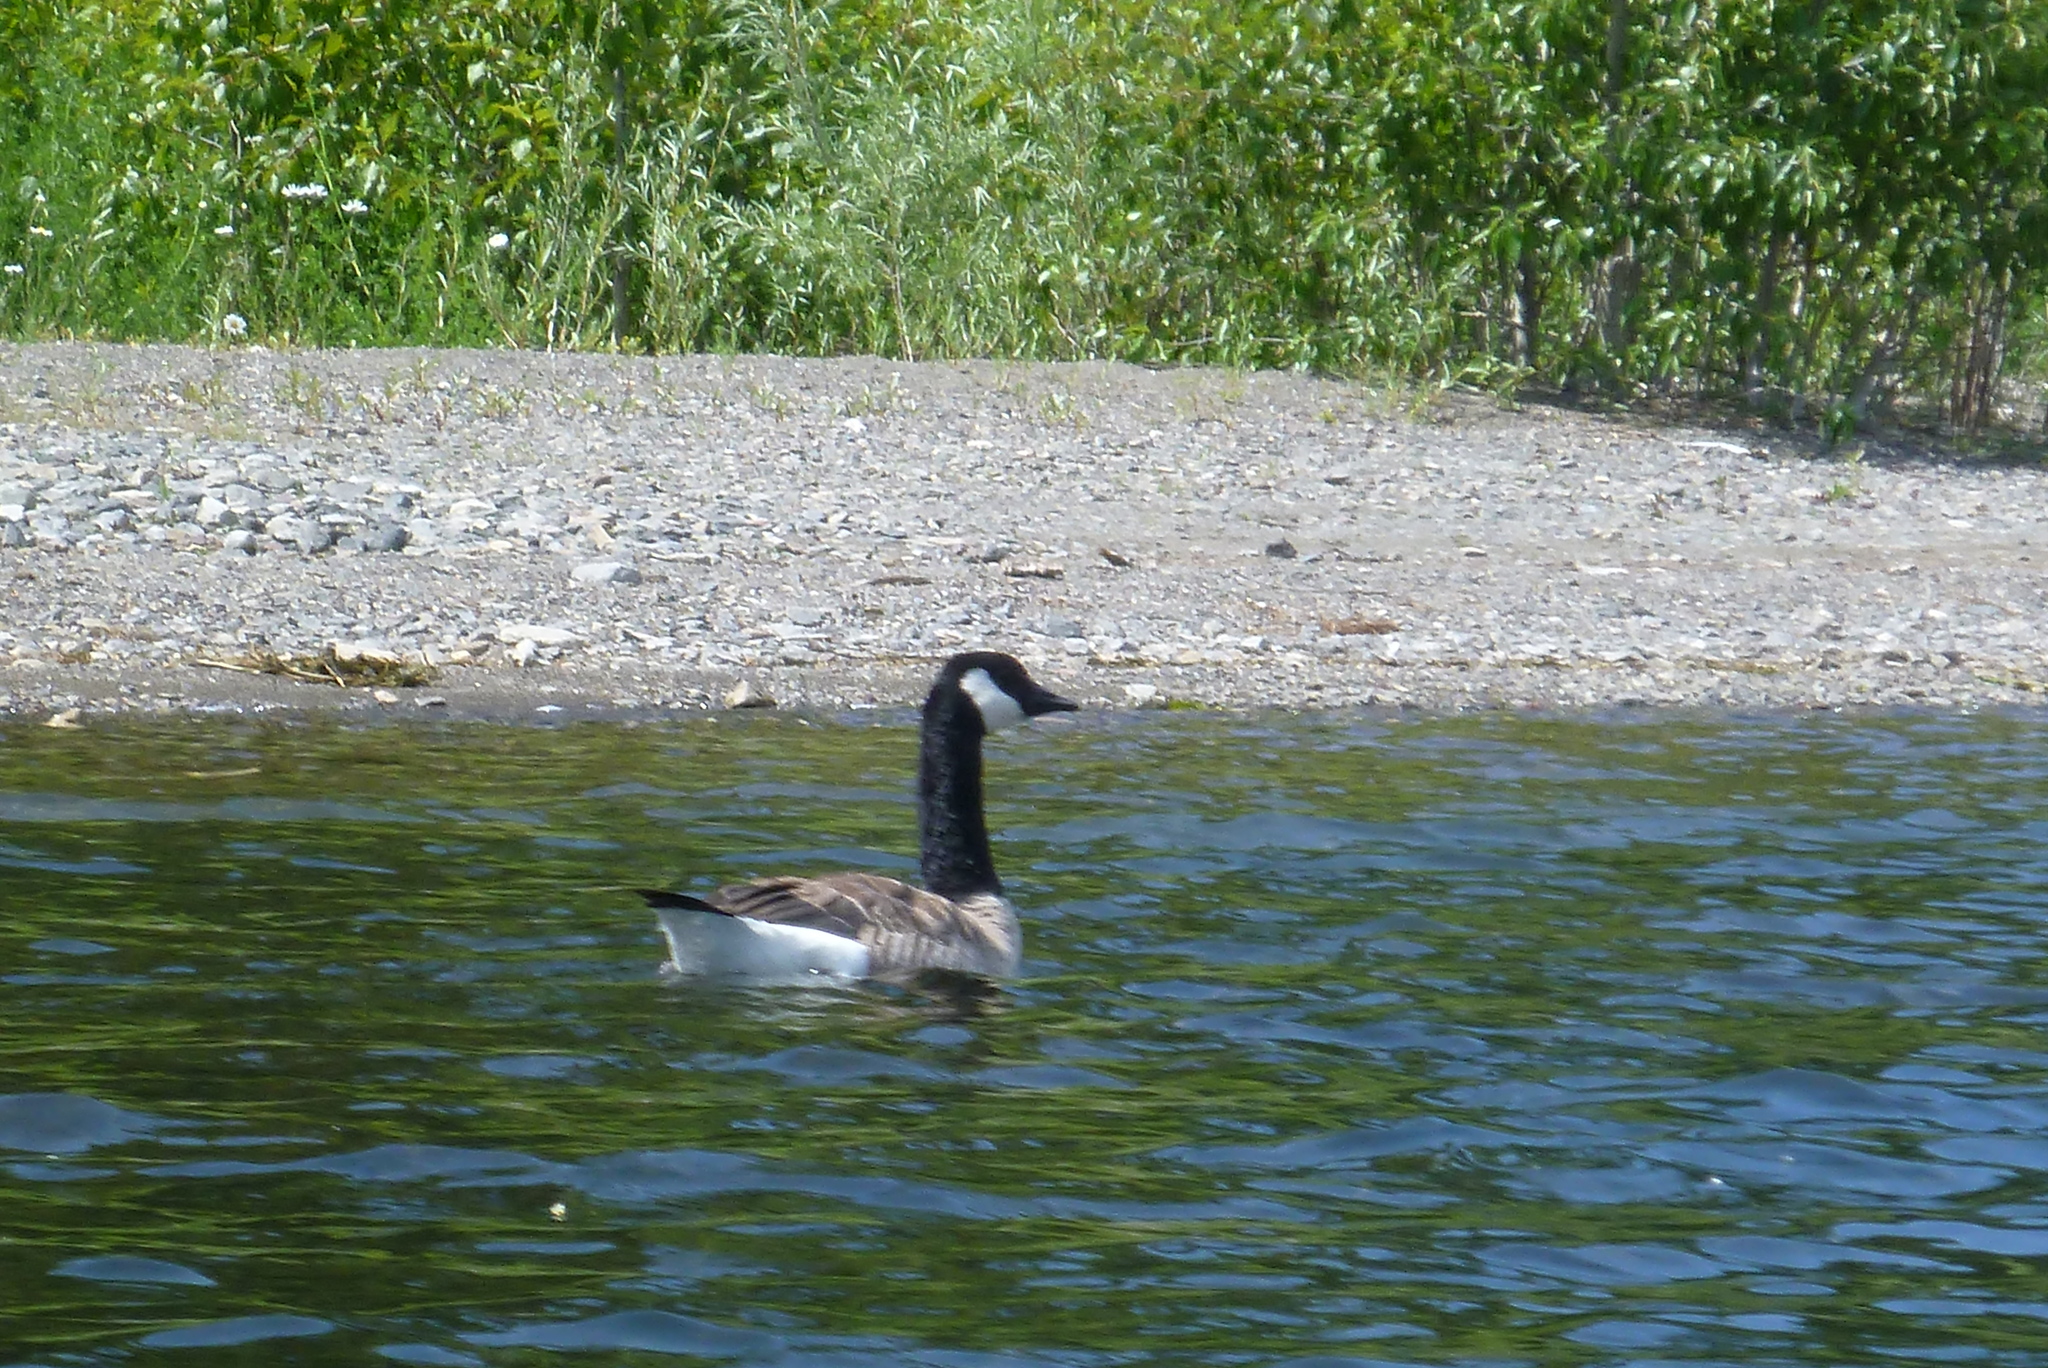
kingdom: Animalia
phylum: Chordata
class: Aves
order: Anseriformes
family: Anatidae
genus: Branta
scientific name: Branta canadensis
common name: Canada goose
